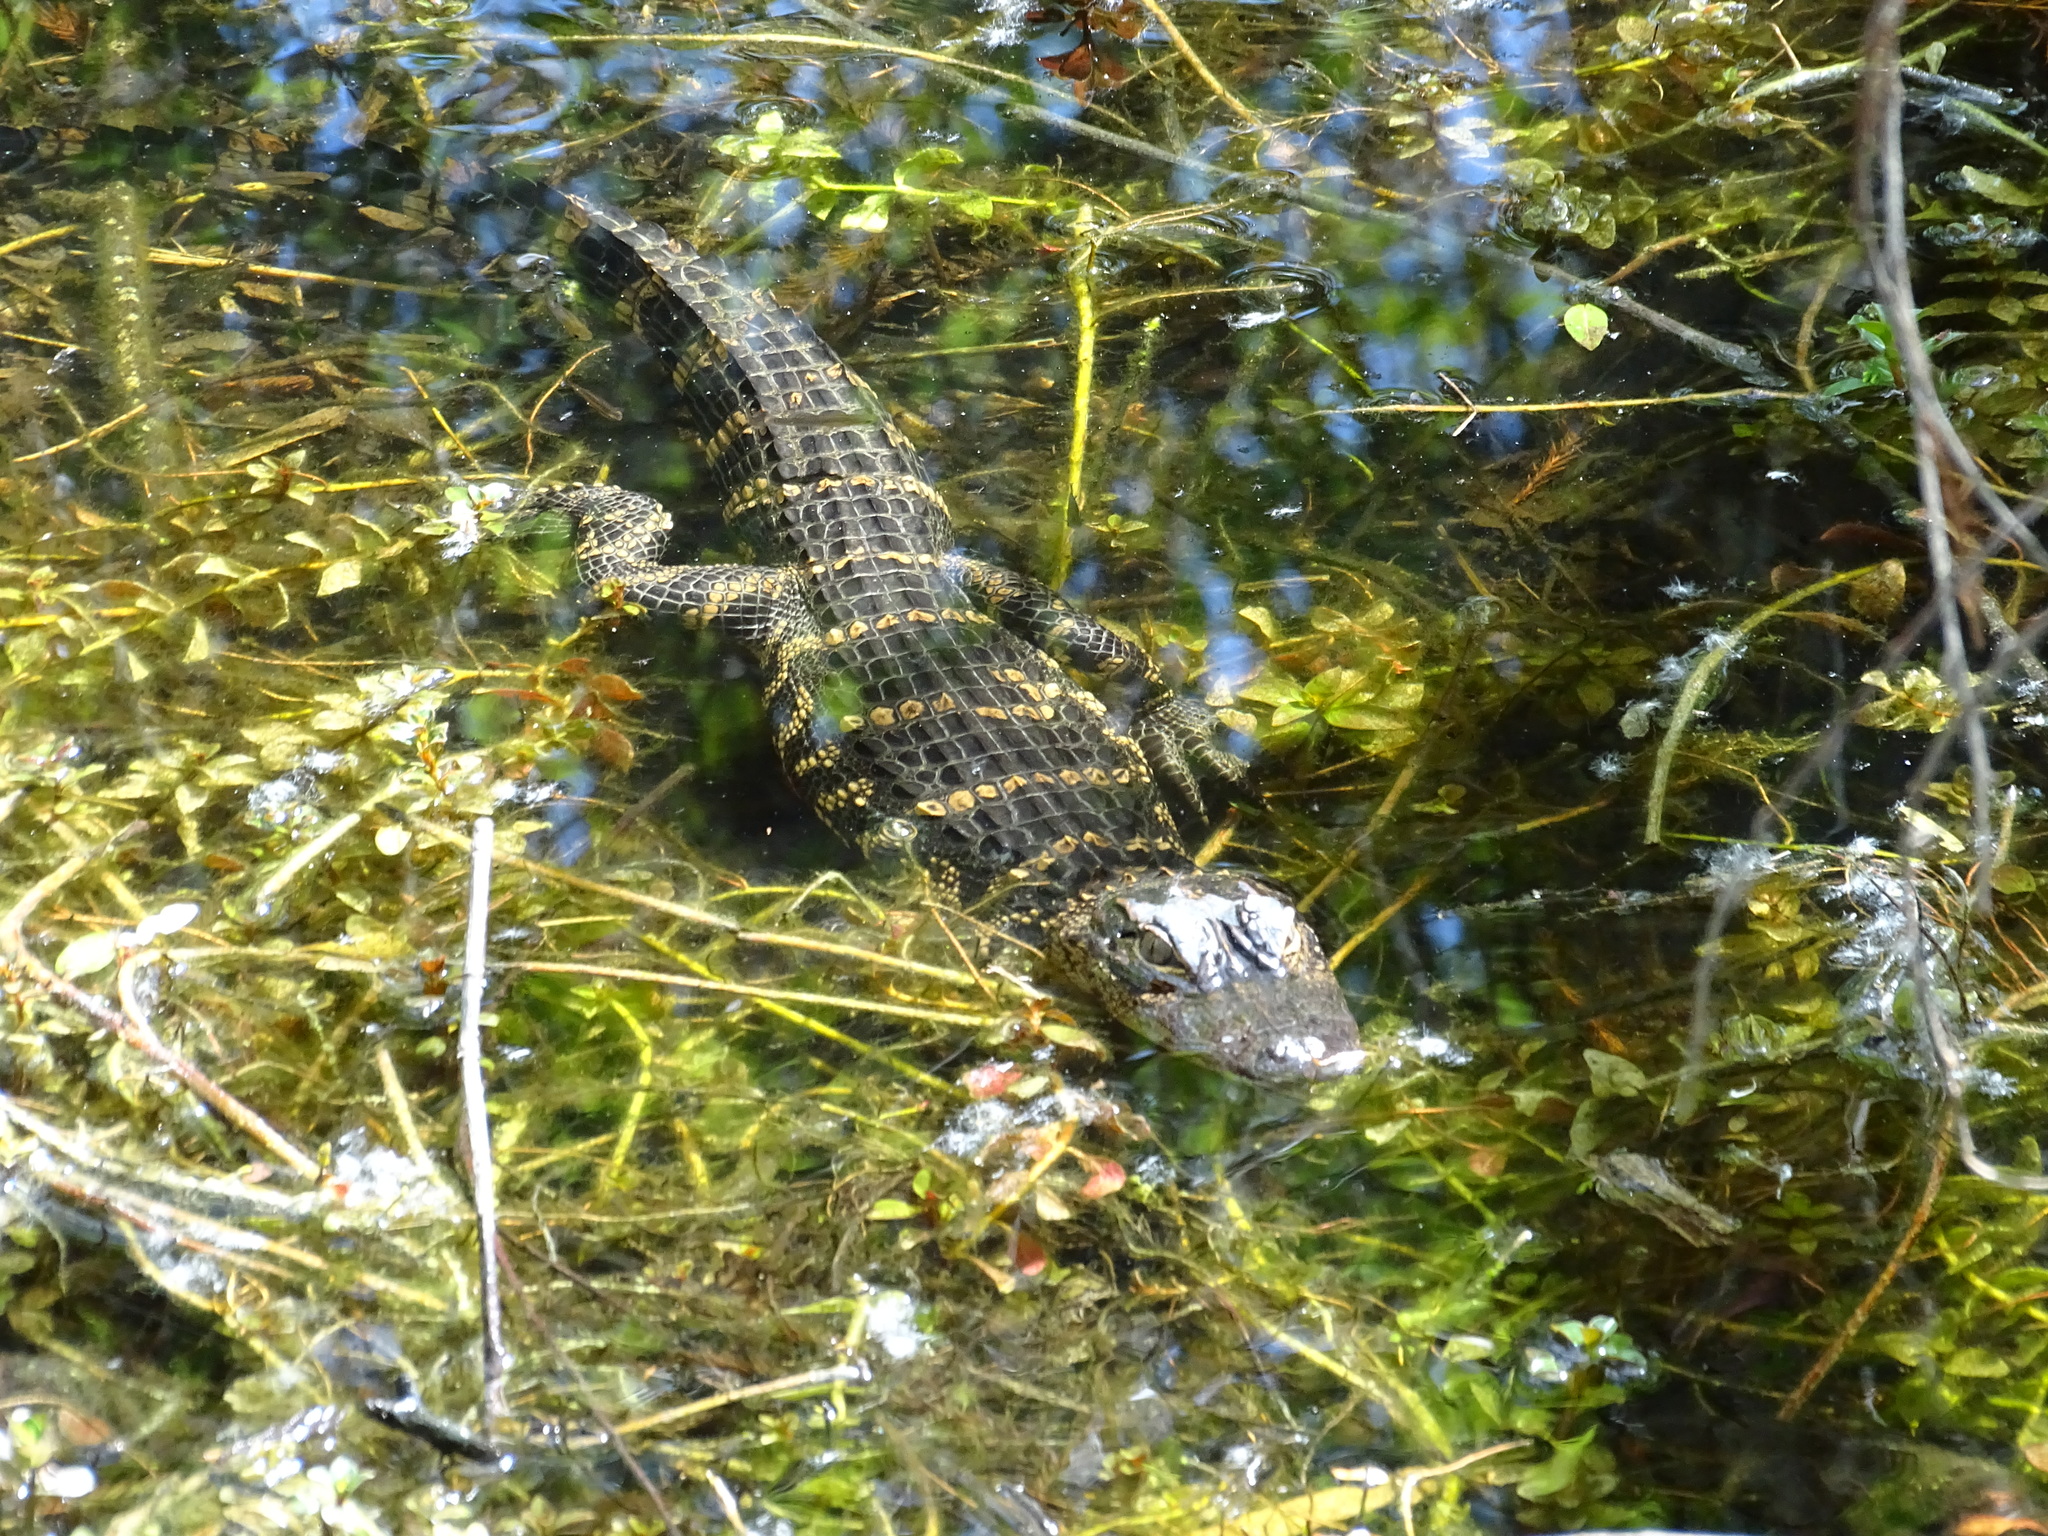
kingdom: Animalia
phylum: Chordata
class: Crocodylia
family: Alligatoridae
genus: Alligator
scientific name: Alligator mississippiensis
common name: American alligator
